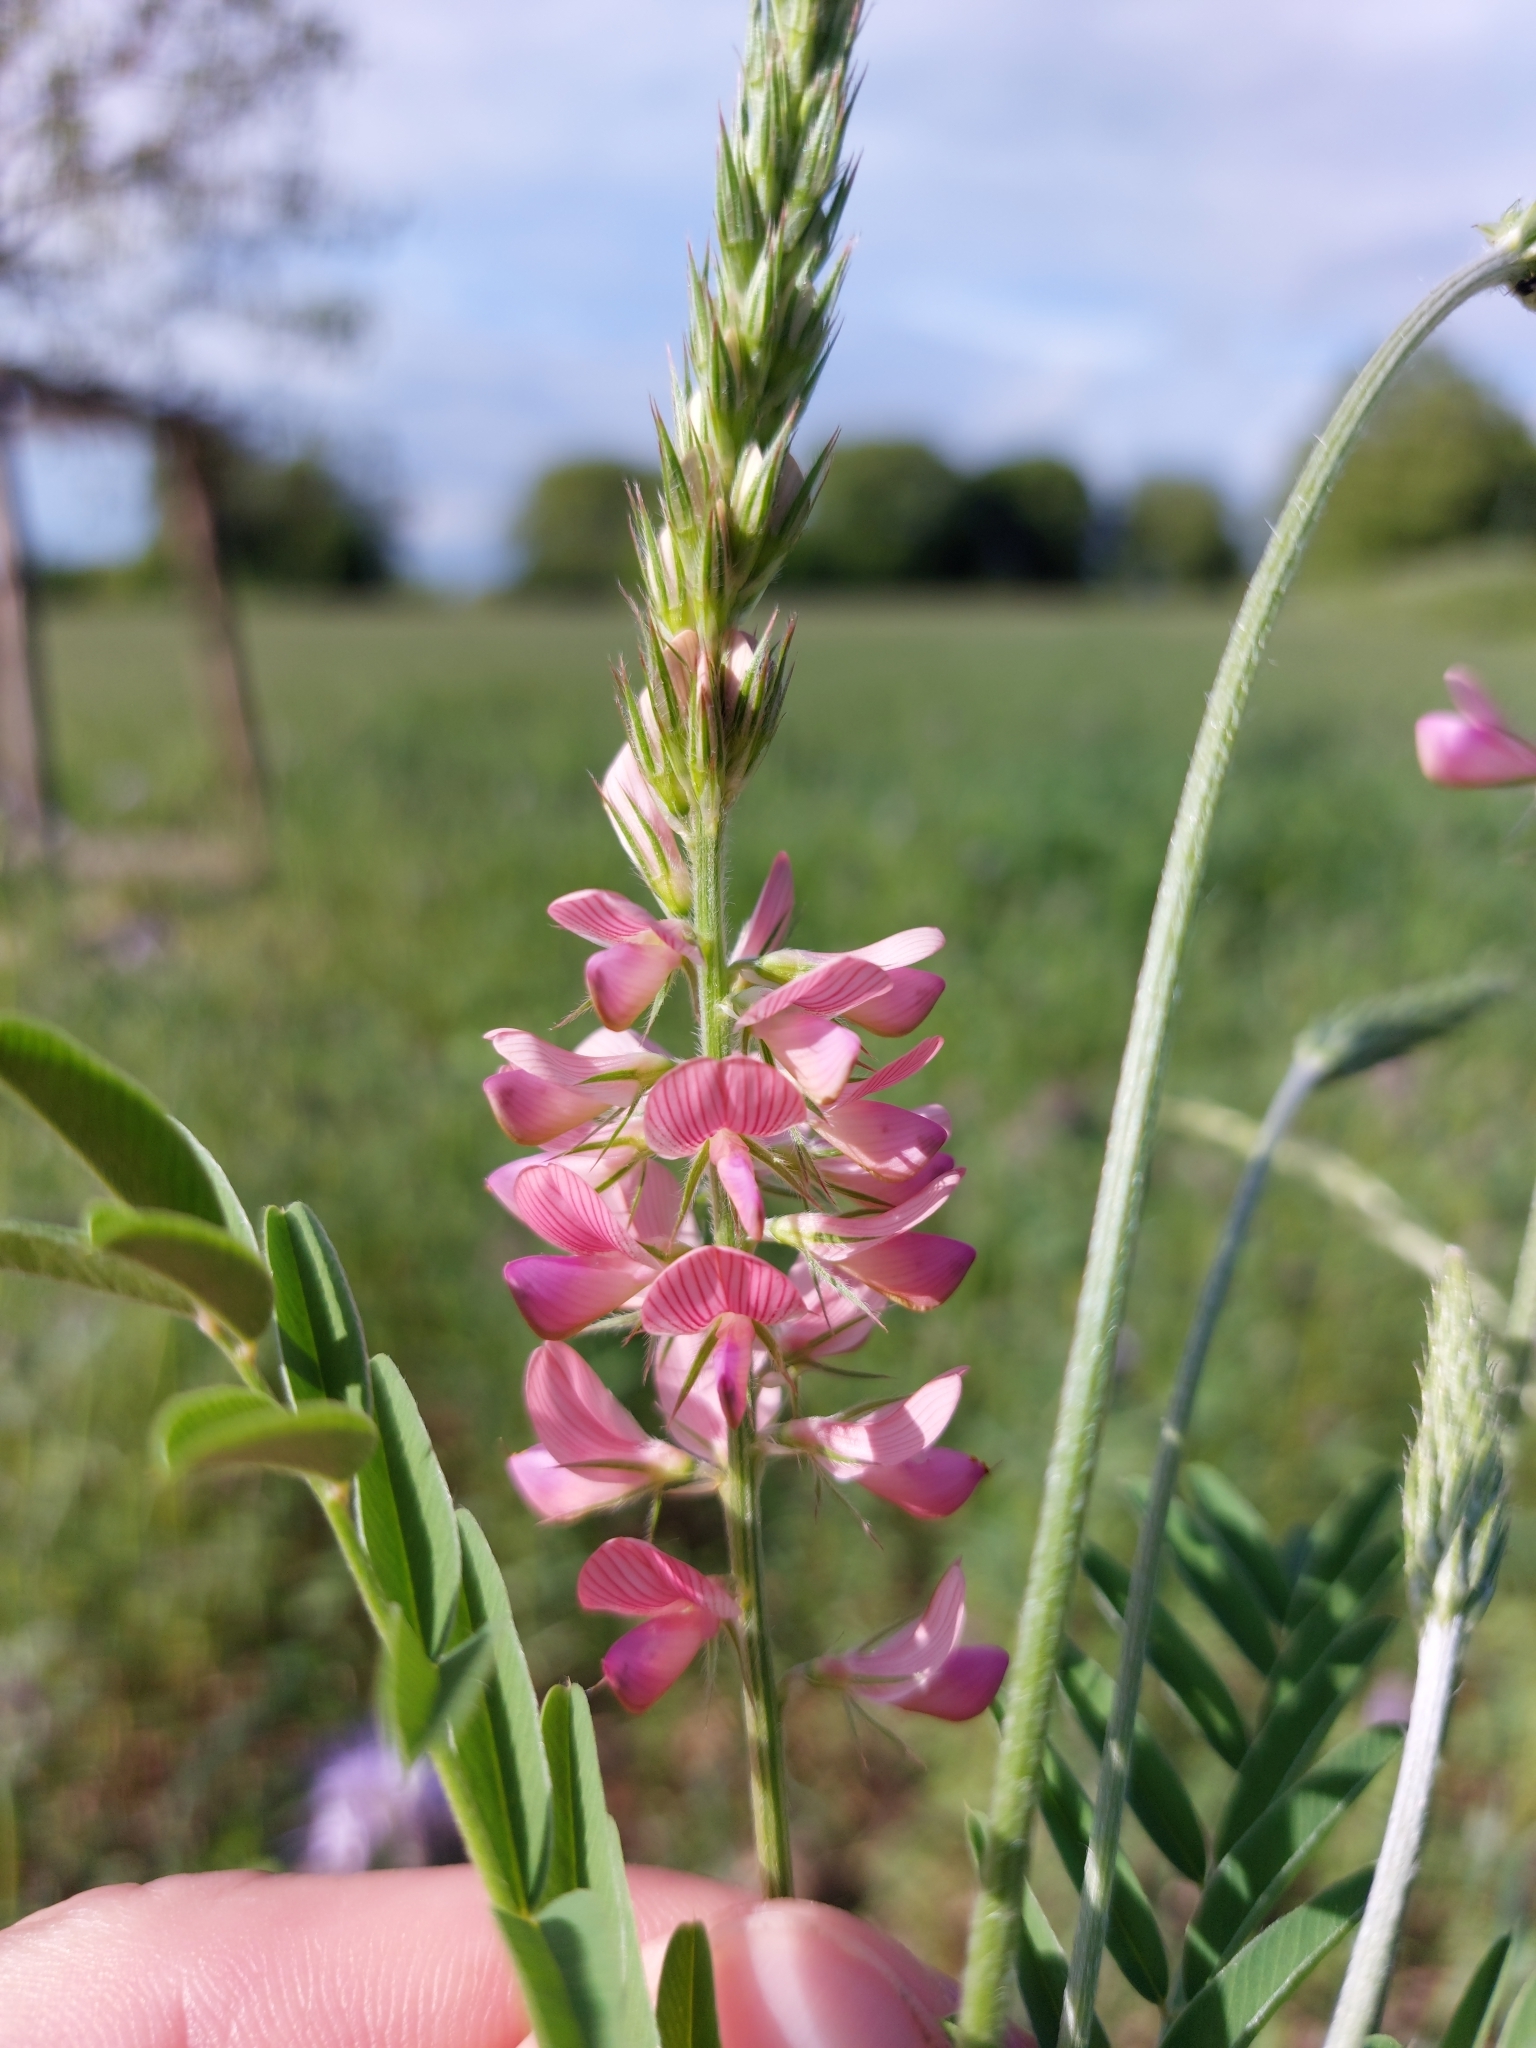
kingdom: Plantae
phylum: Tracheophyta
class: Magnoliopsida
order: Fabales
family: Fabaceae
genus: Onobrychis
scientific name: Onobrychis viciifolia
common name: Sainfoin
